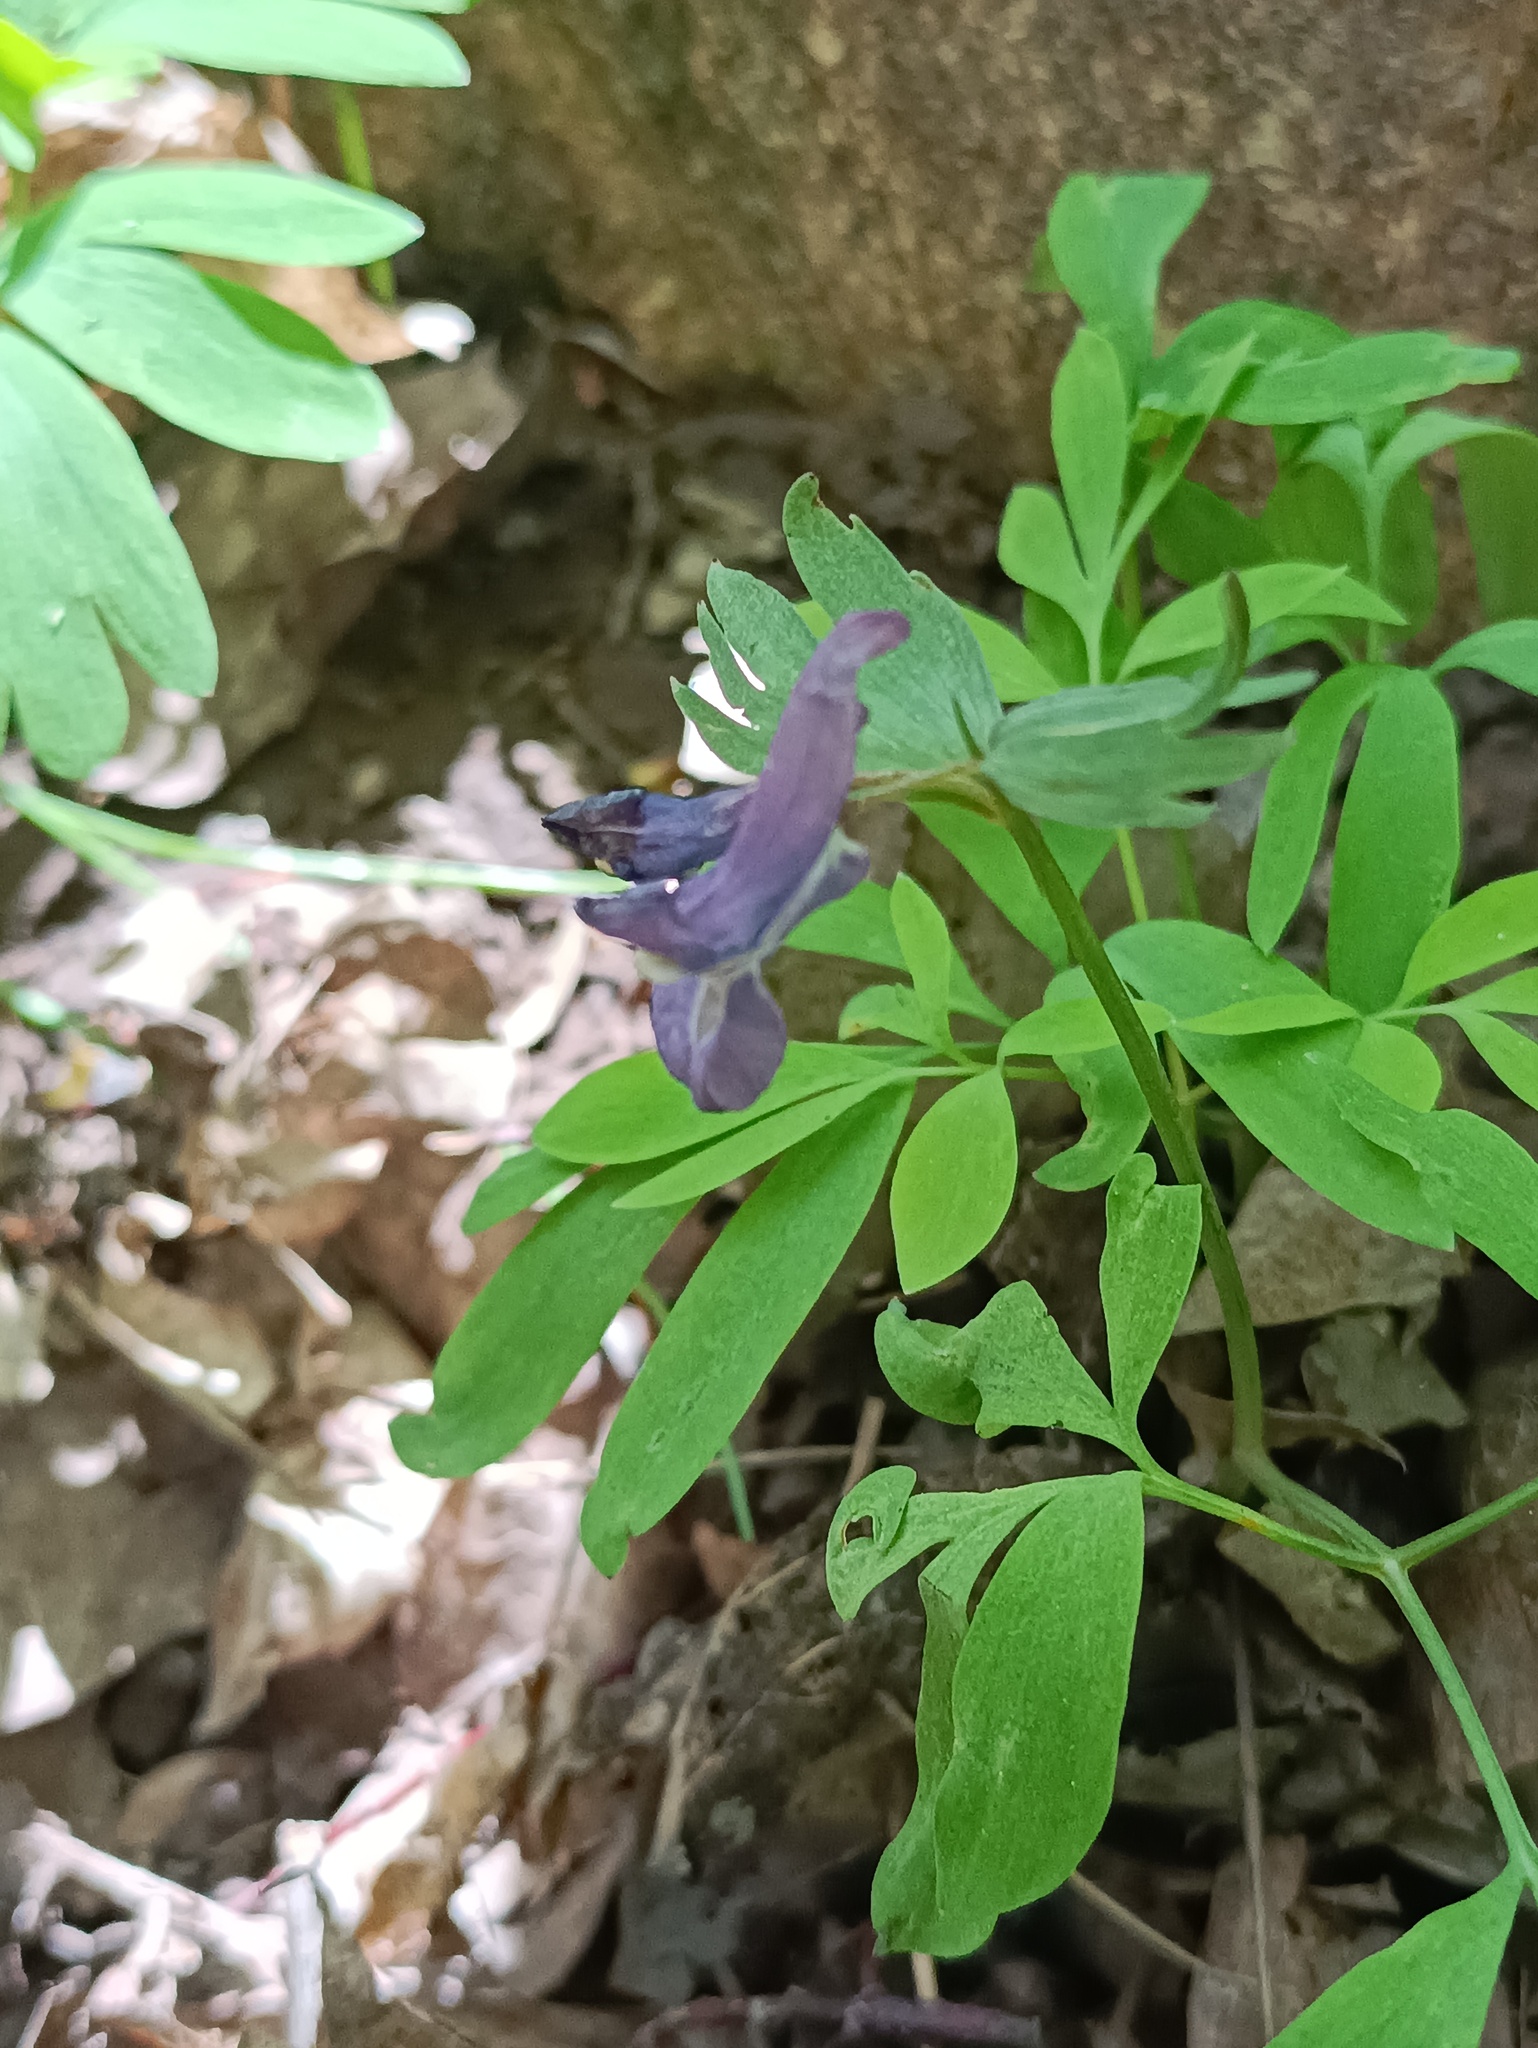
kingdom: Plantae
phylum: Tracheophyta
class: Magnoliopsida
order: Ranunculales
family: Papaveraceae
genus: Corydalis
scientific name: Corydalis solida
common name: Bird-in-a-bush
